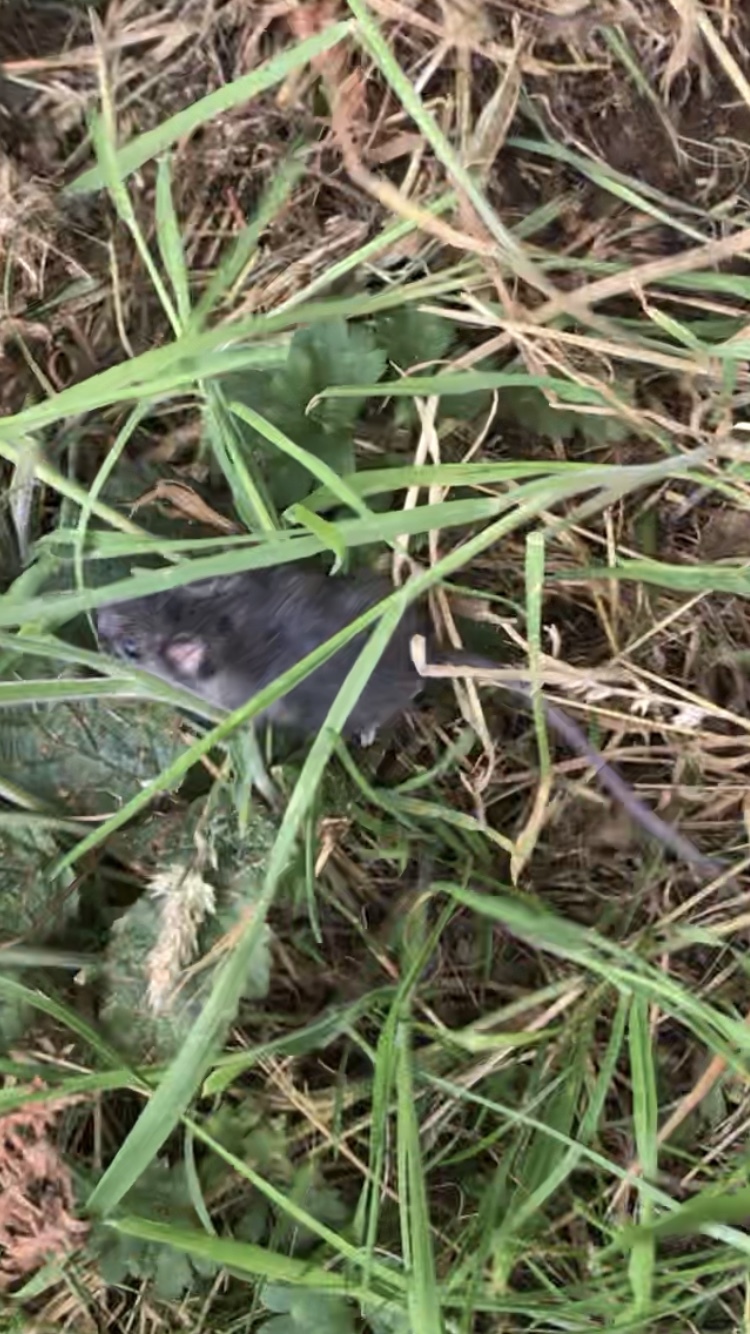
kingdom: Animalia
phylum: Chordata
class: Mammalia
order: Rodentia
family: Cricetidae
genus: Peromyscus
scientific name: Peromyscus maniculatus
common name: Deer mouse
